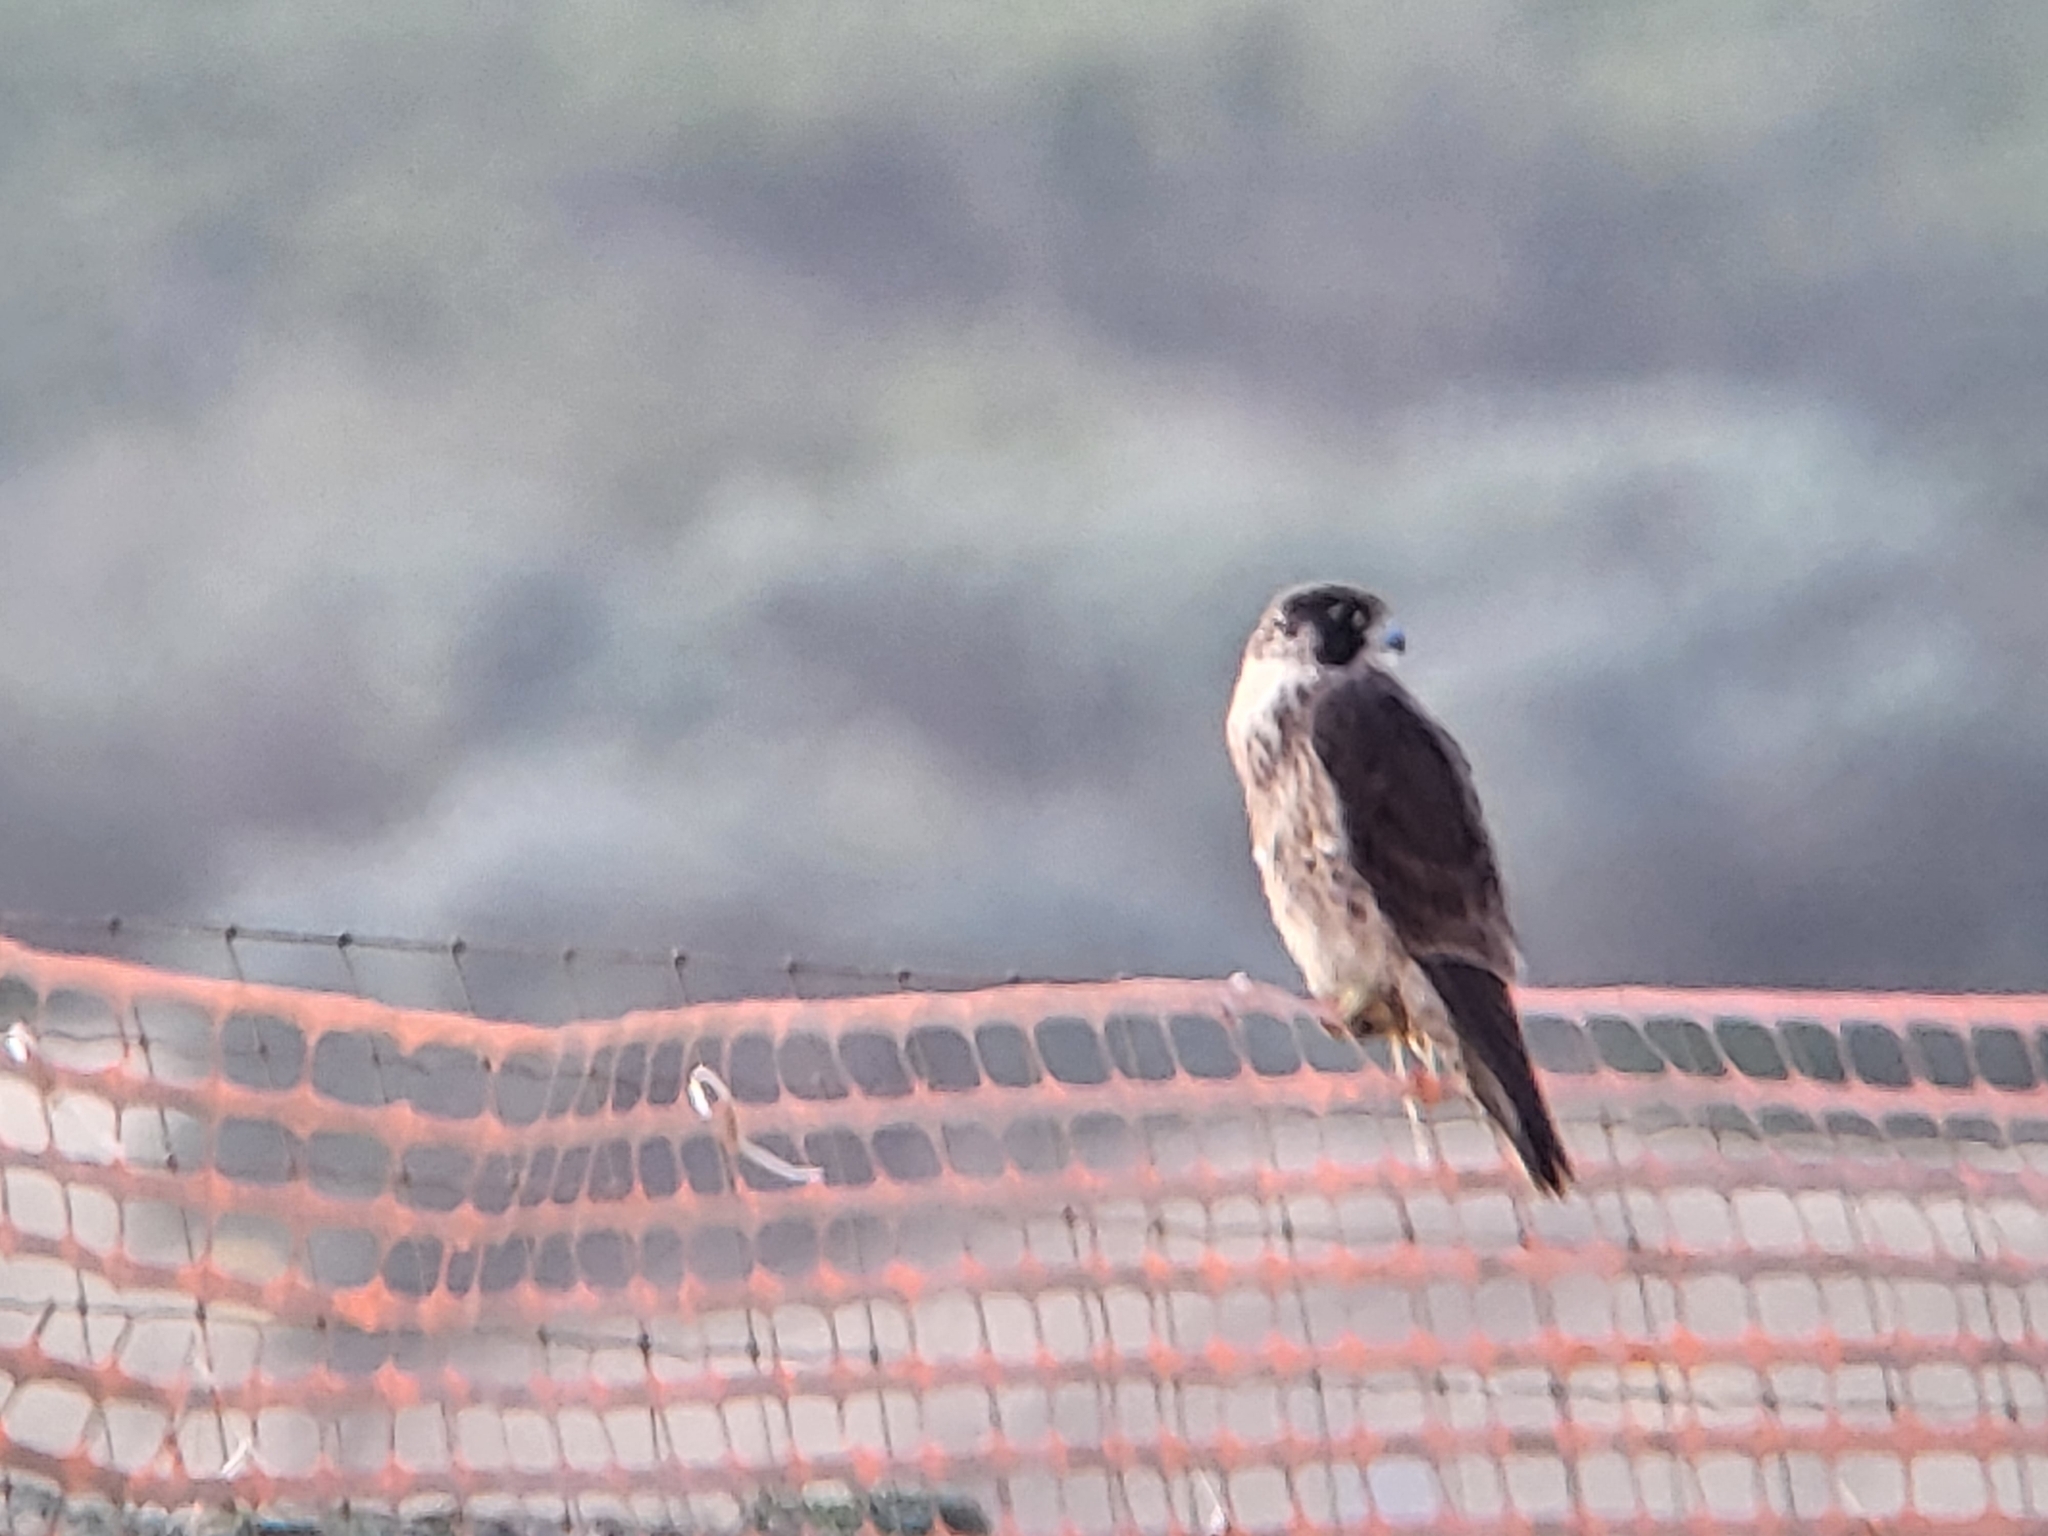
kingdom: Animalia
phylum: Chordata
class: Aves
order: Falconiformes
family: Falconidae
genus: Falco
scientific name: Falco peregrinus
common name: Peregrine falcon
